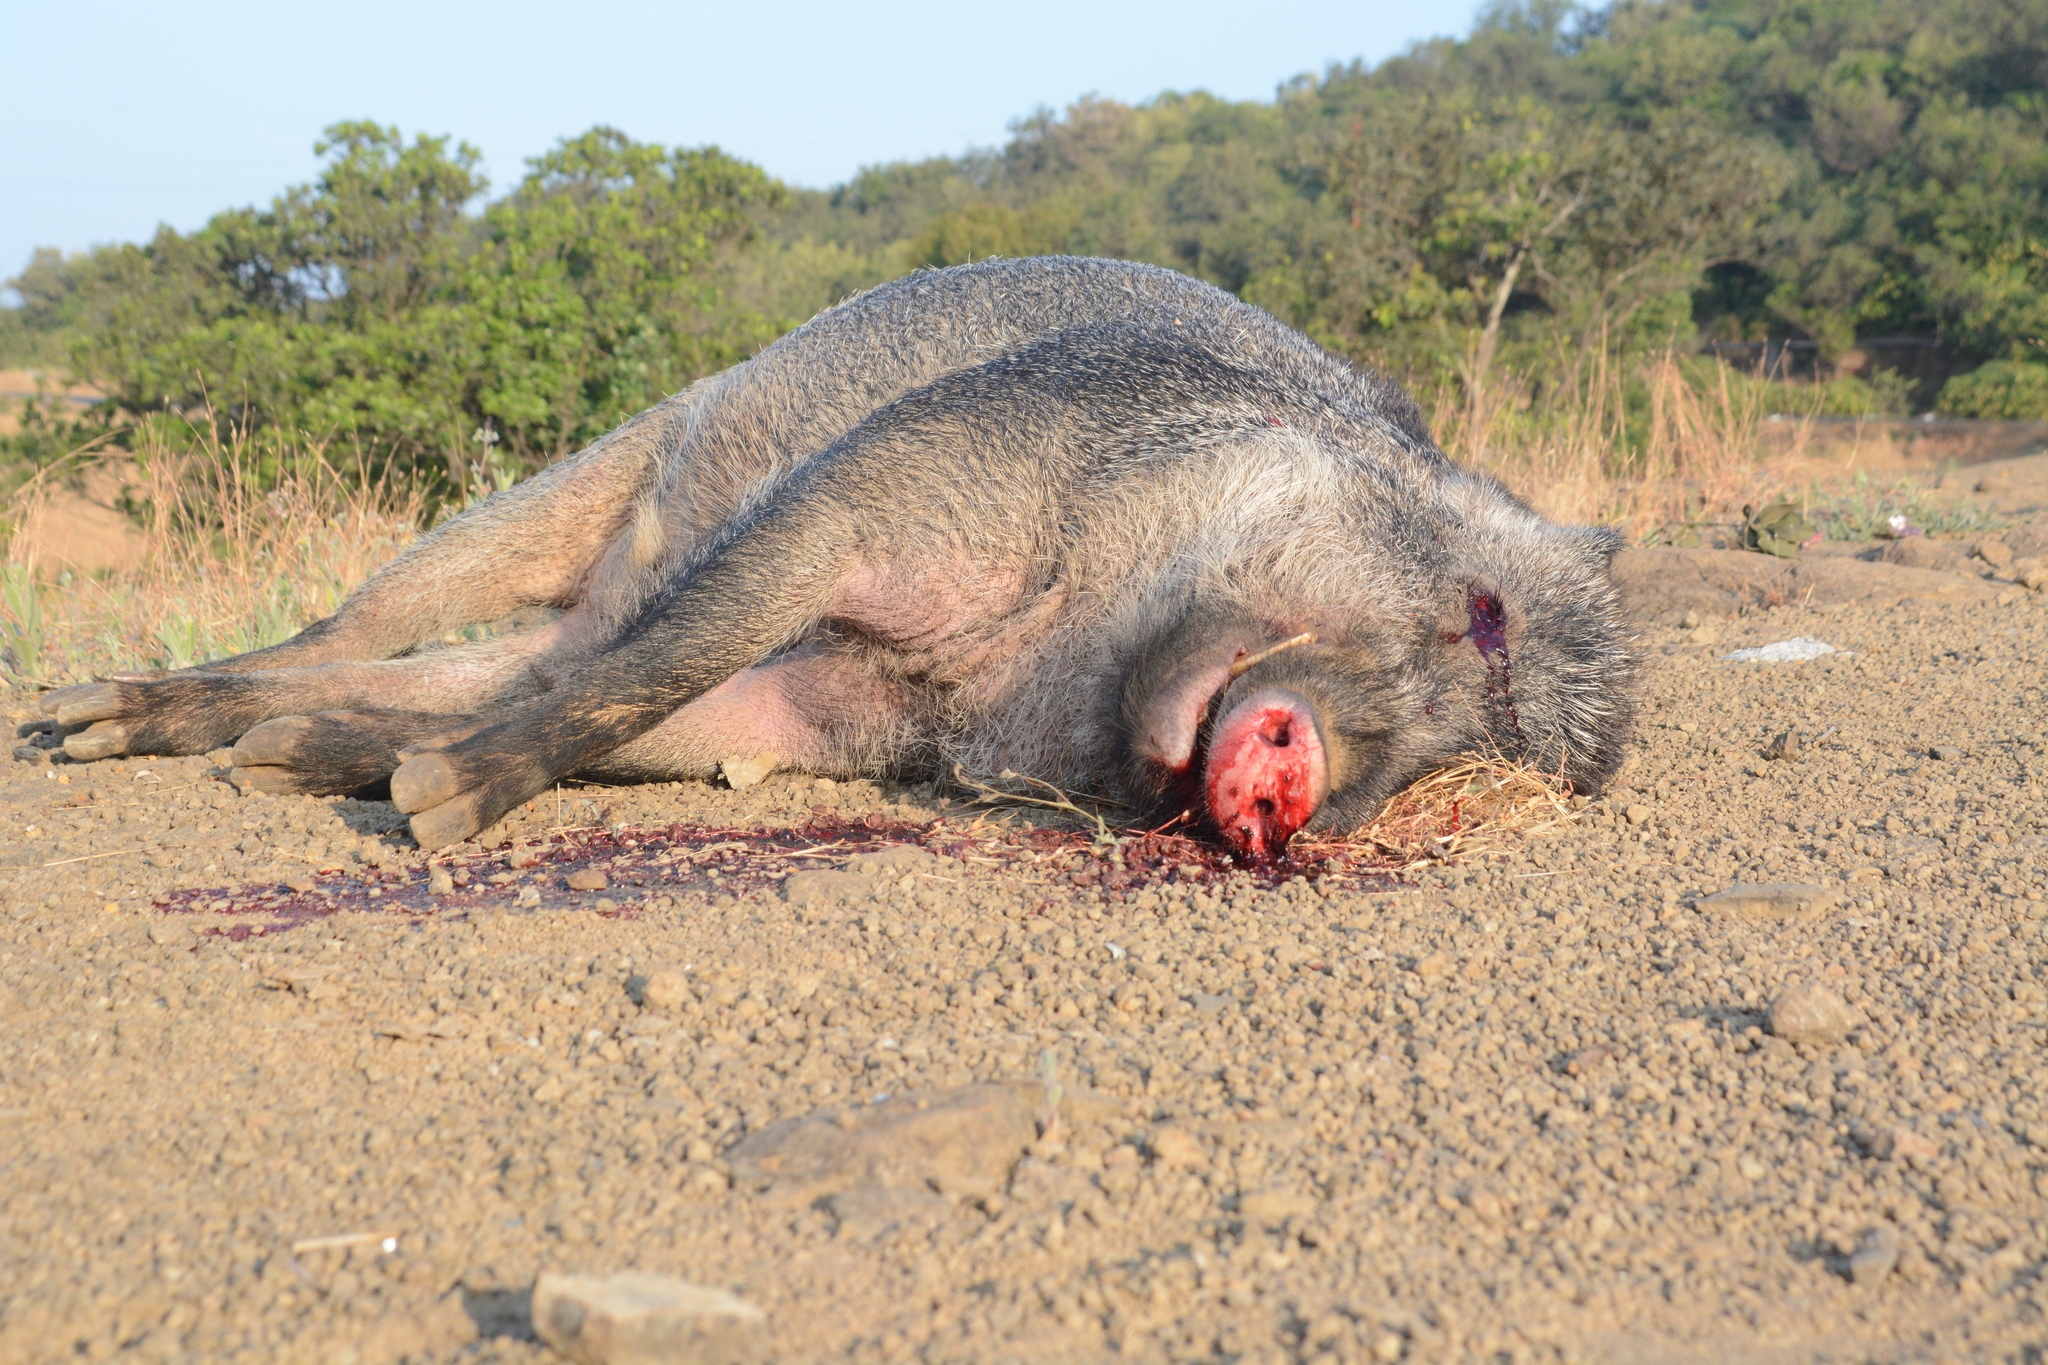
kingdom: Animalia
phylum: Chordata
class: Mammalia
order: Artiodactyla
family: Suidae
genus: Sus
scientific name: Sus scrofa
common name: Wild boar
